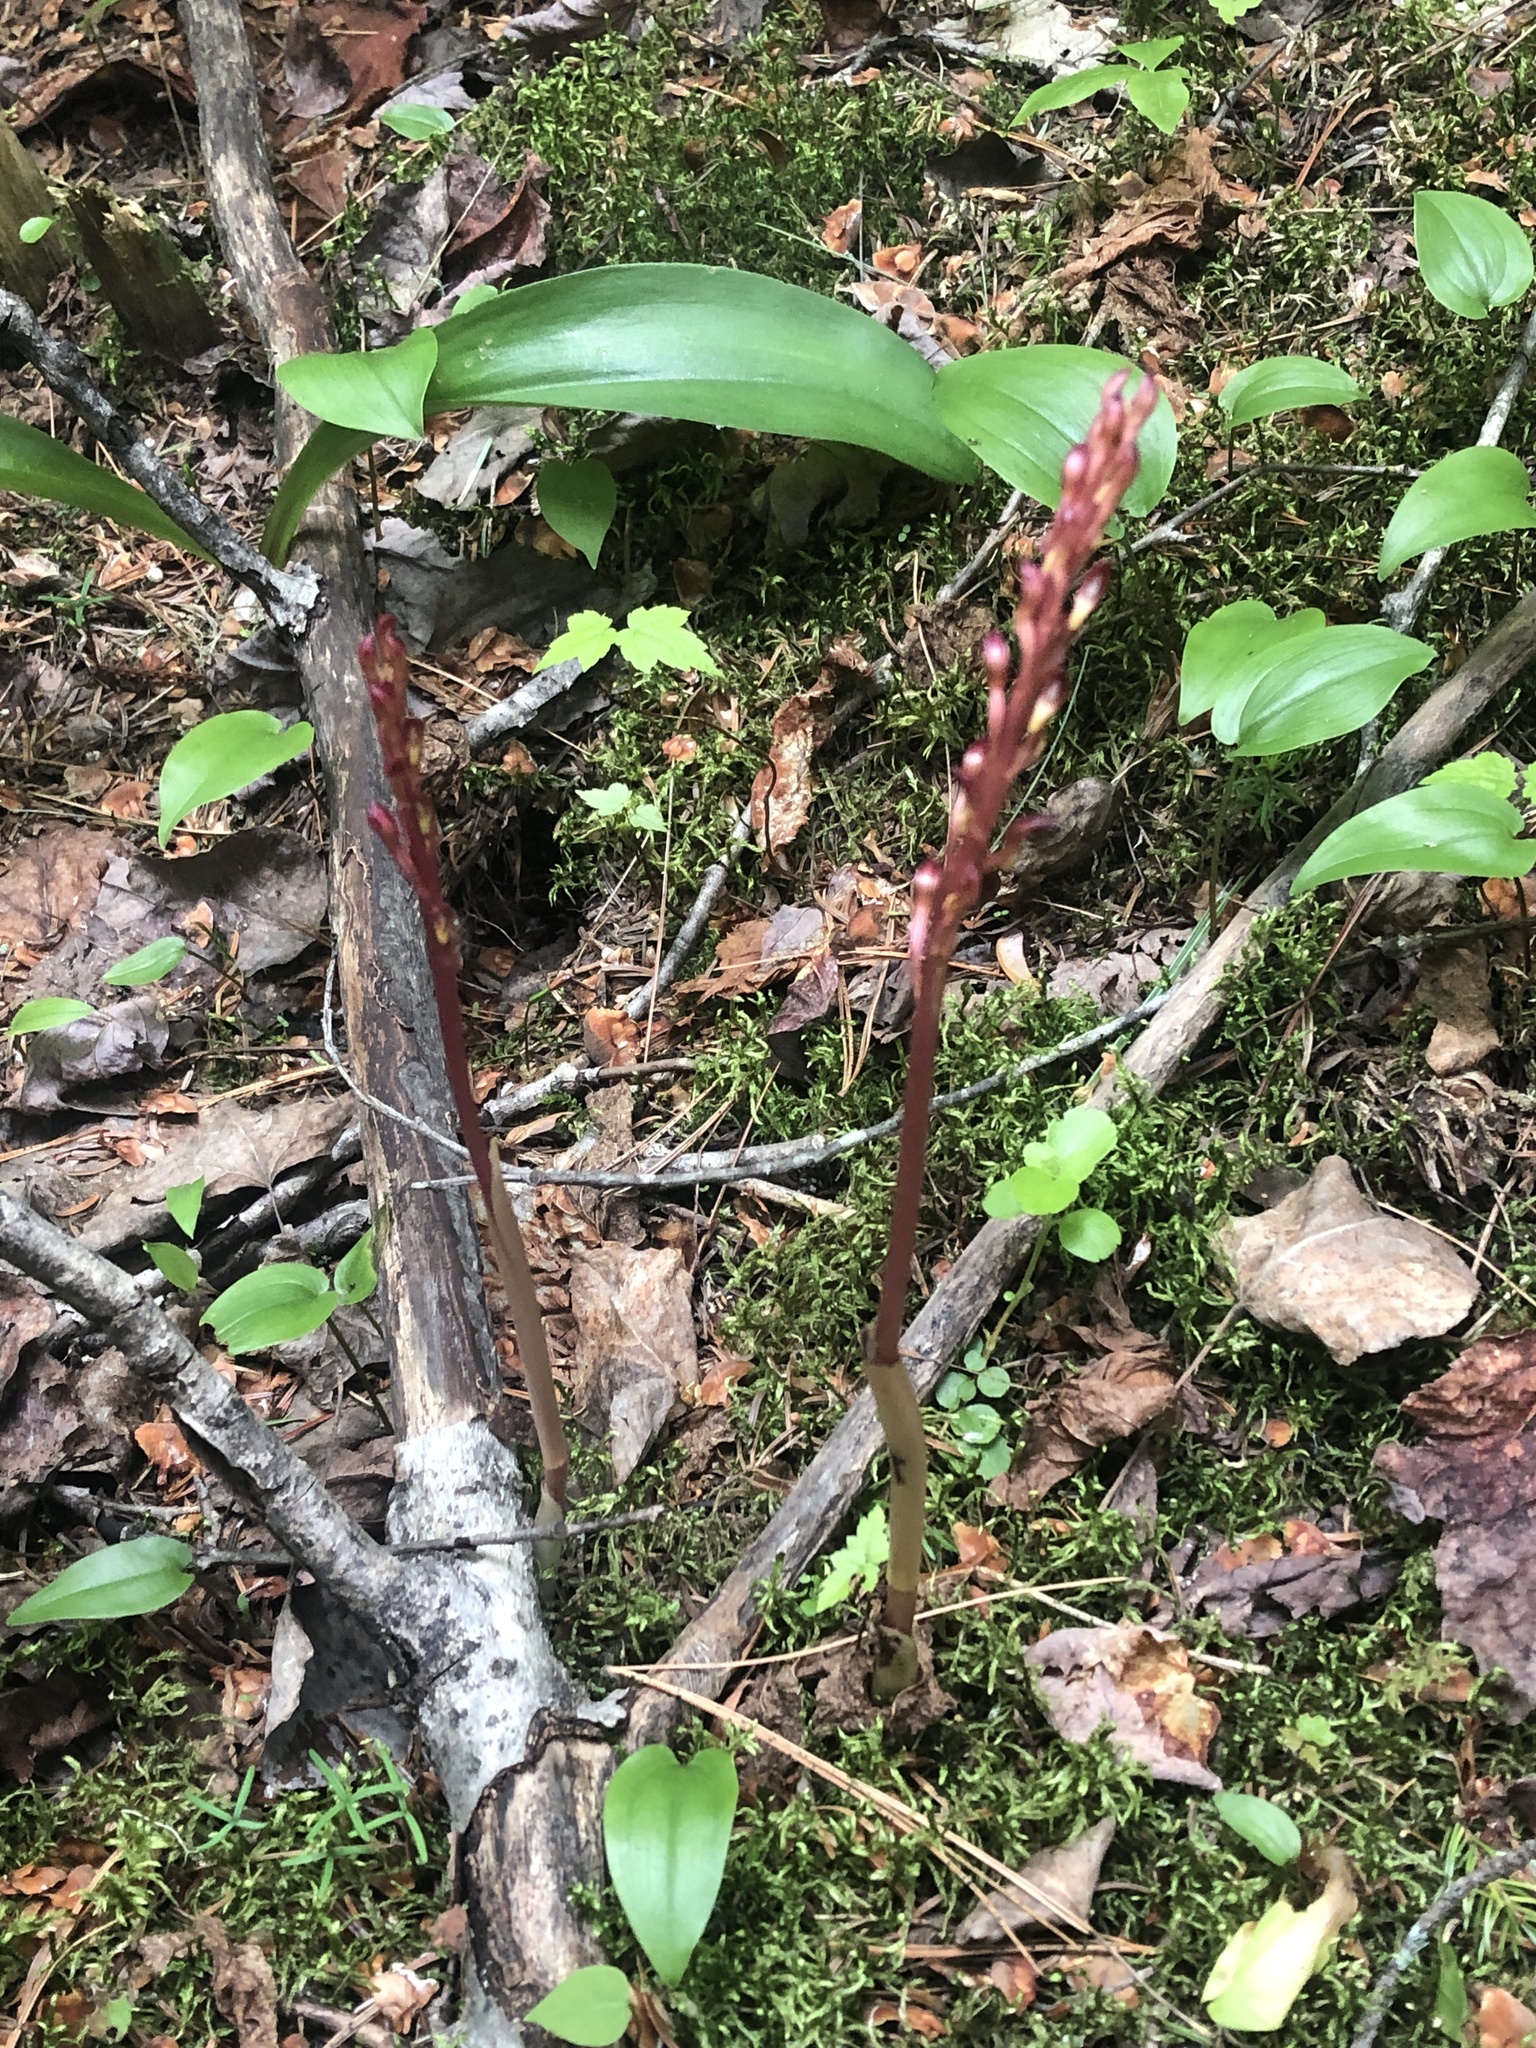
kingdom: Plantae
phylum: Tracheophyta
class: Liliopsida
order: Asparagales
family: Orchidaceae
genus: Corallorhiza
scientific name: Corallorhiza maculata
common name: Spotted coralroot
